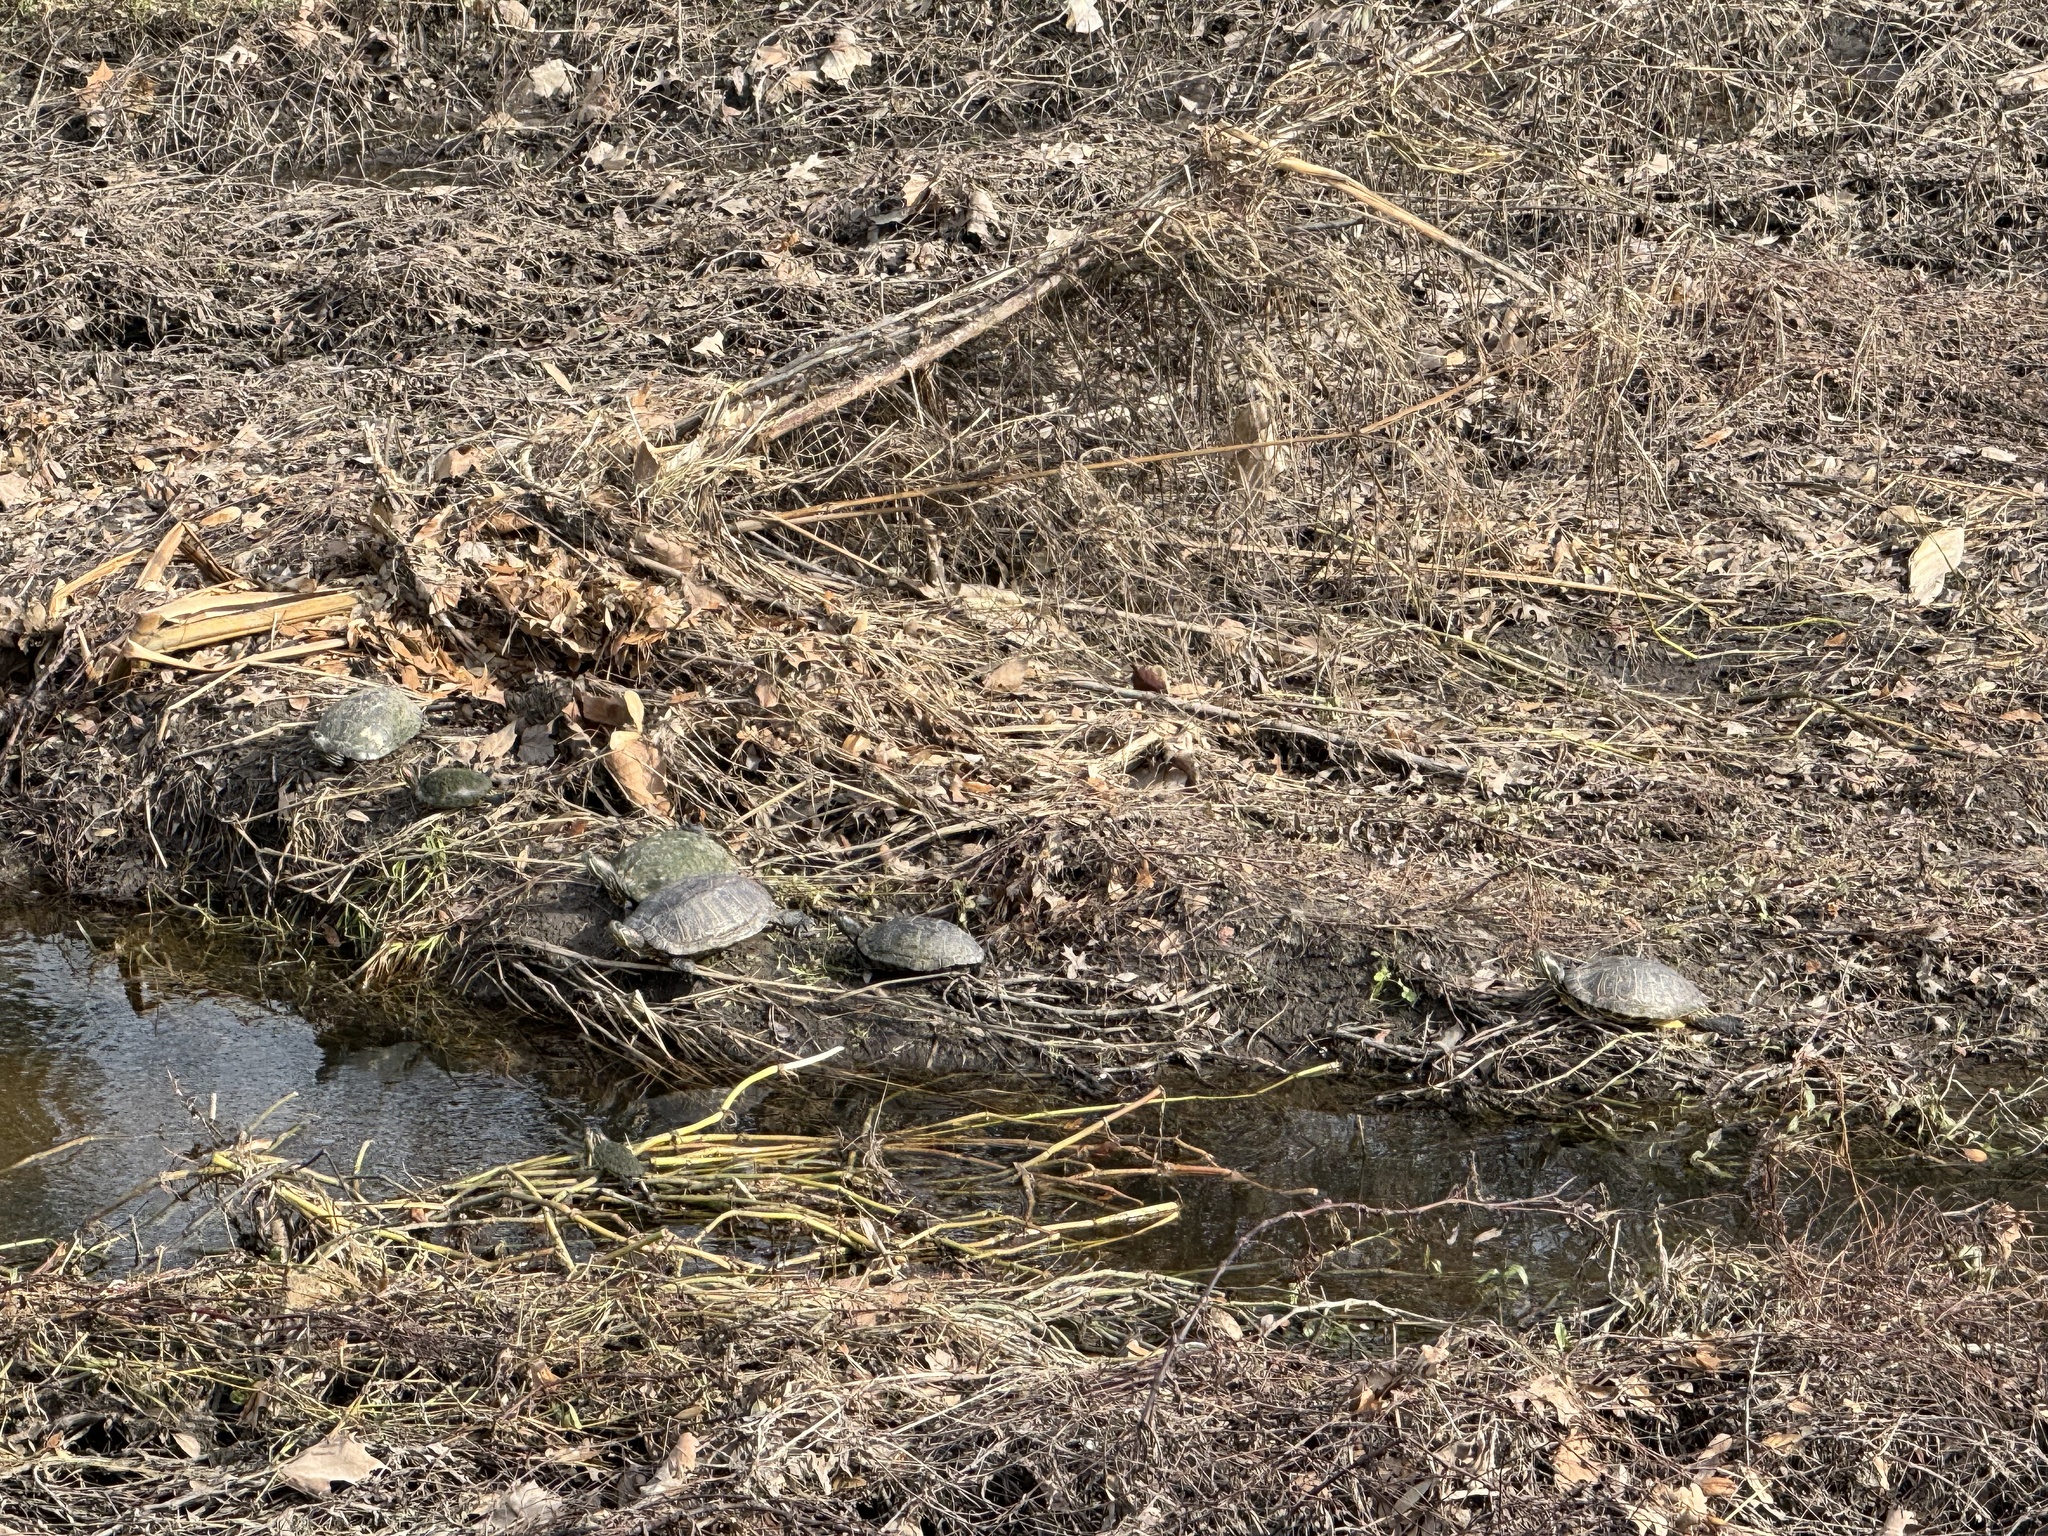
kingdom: Animalia
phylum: Chordata
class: Testudines
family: Emydidae
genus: Trachemys
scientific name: Trachemys scripta
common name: Slider
